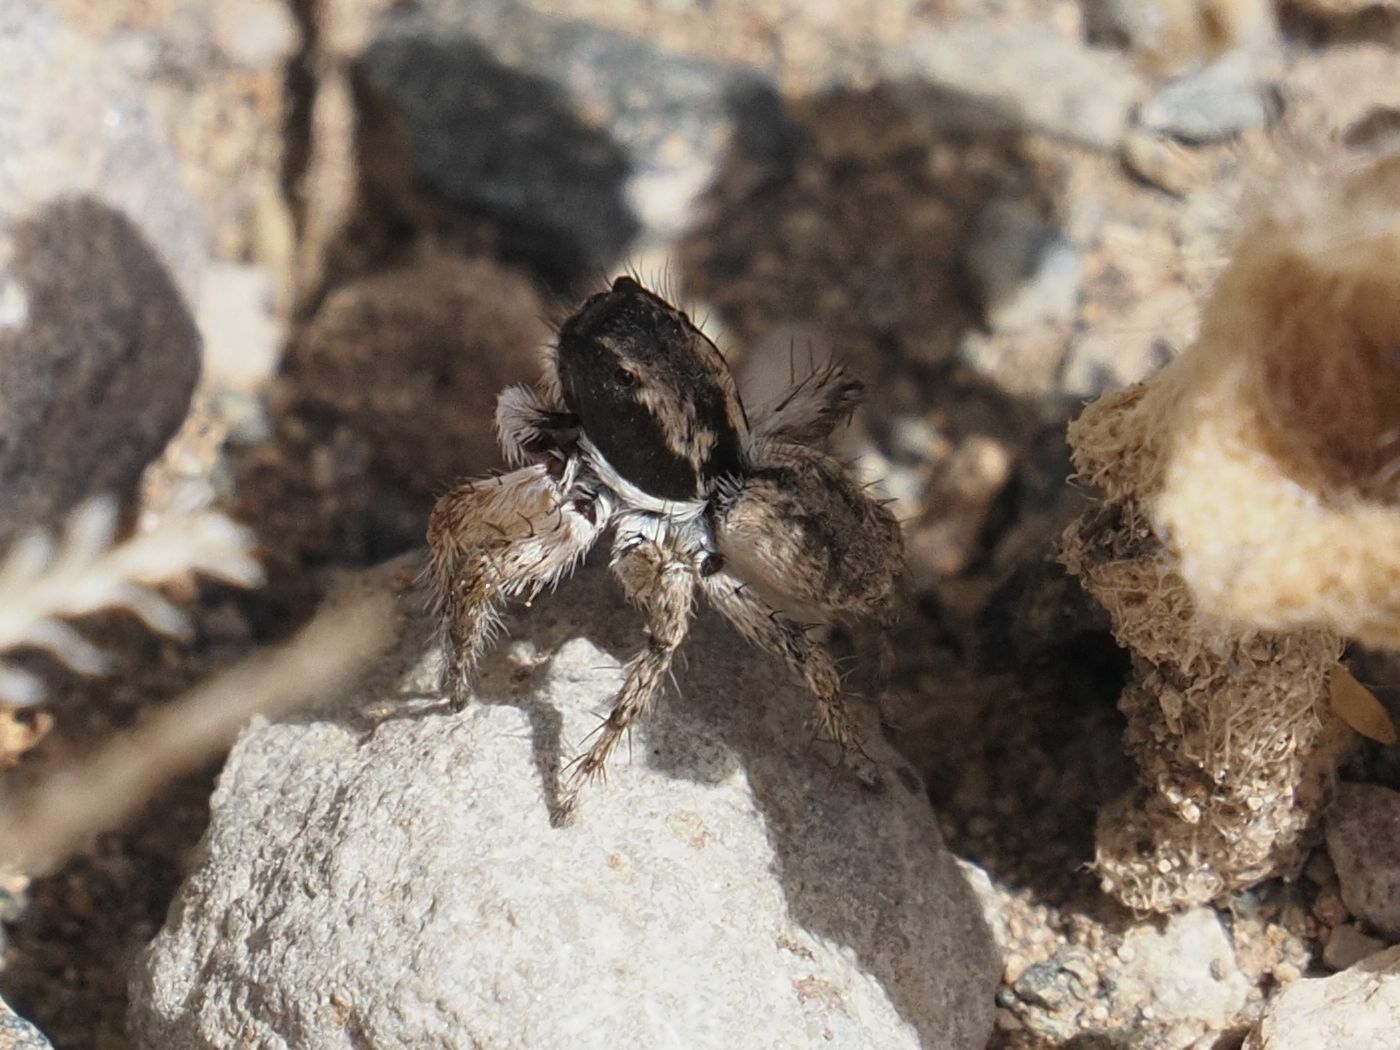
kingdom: Animalia
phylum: Arthropoda
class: Arachnida
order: Araneae
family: Salticidae
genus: Aelurillus
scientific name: Aelurillus lucasi
